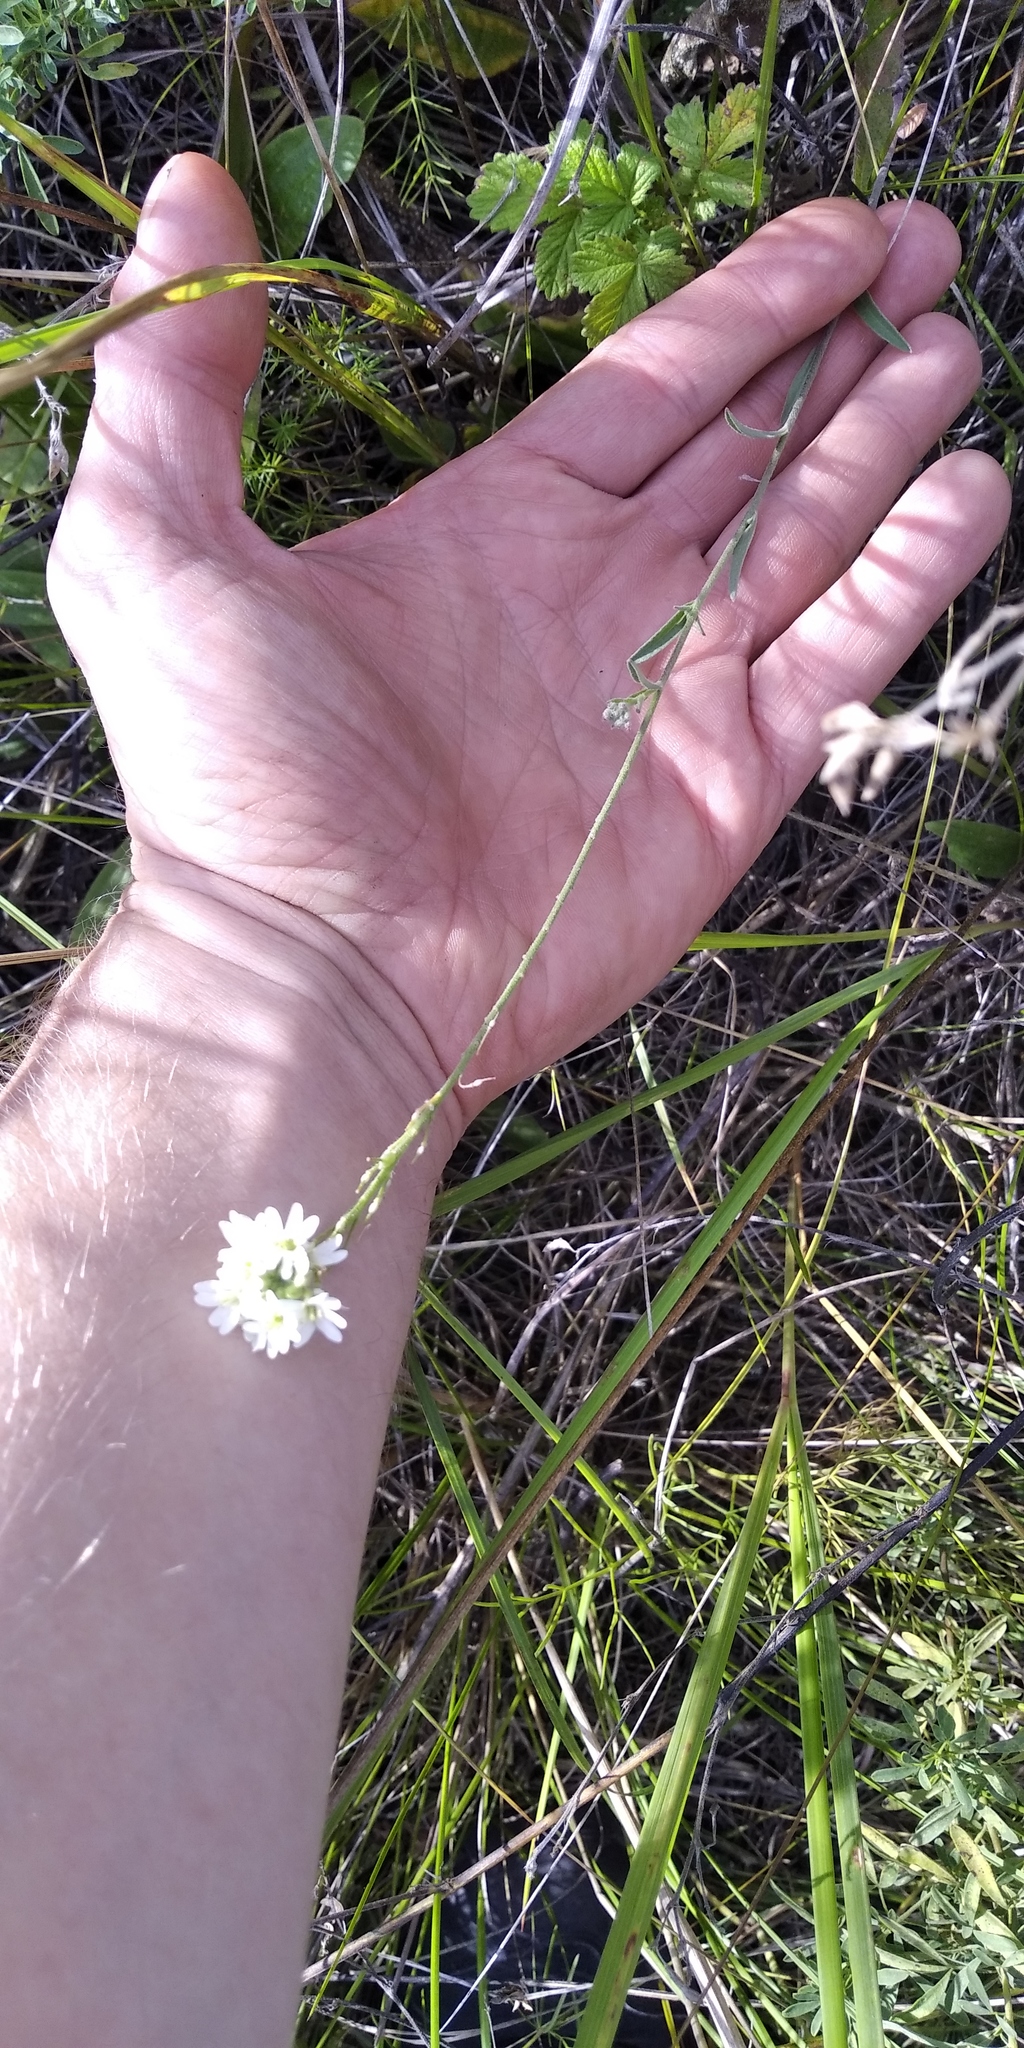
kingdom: Plantae
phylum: Tracheophyta
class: Magnoliopsida
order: Brassicales
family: Brassicaceae
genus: Berteroa
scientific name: Berteroa incana
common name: Hoary alison
